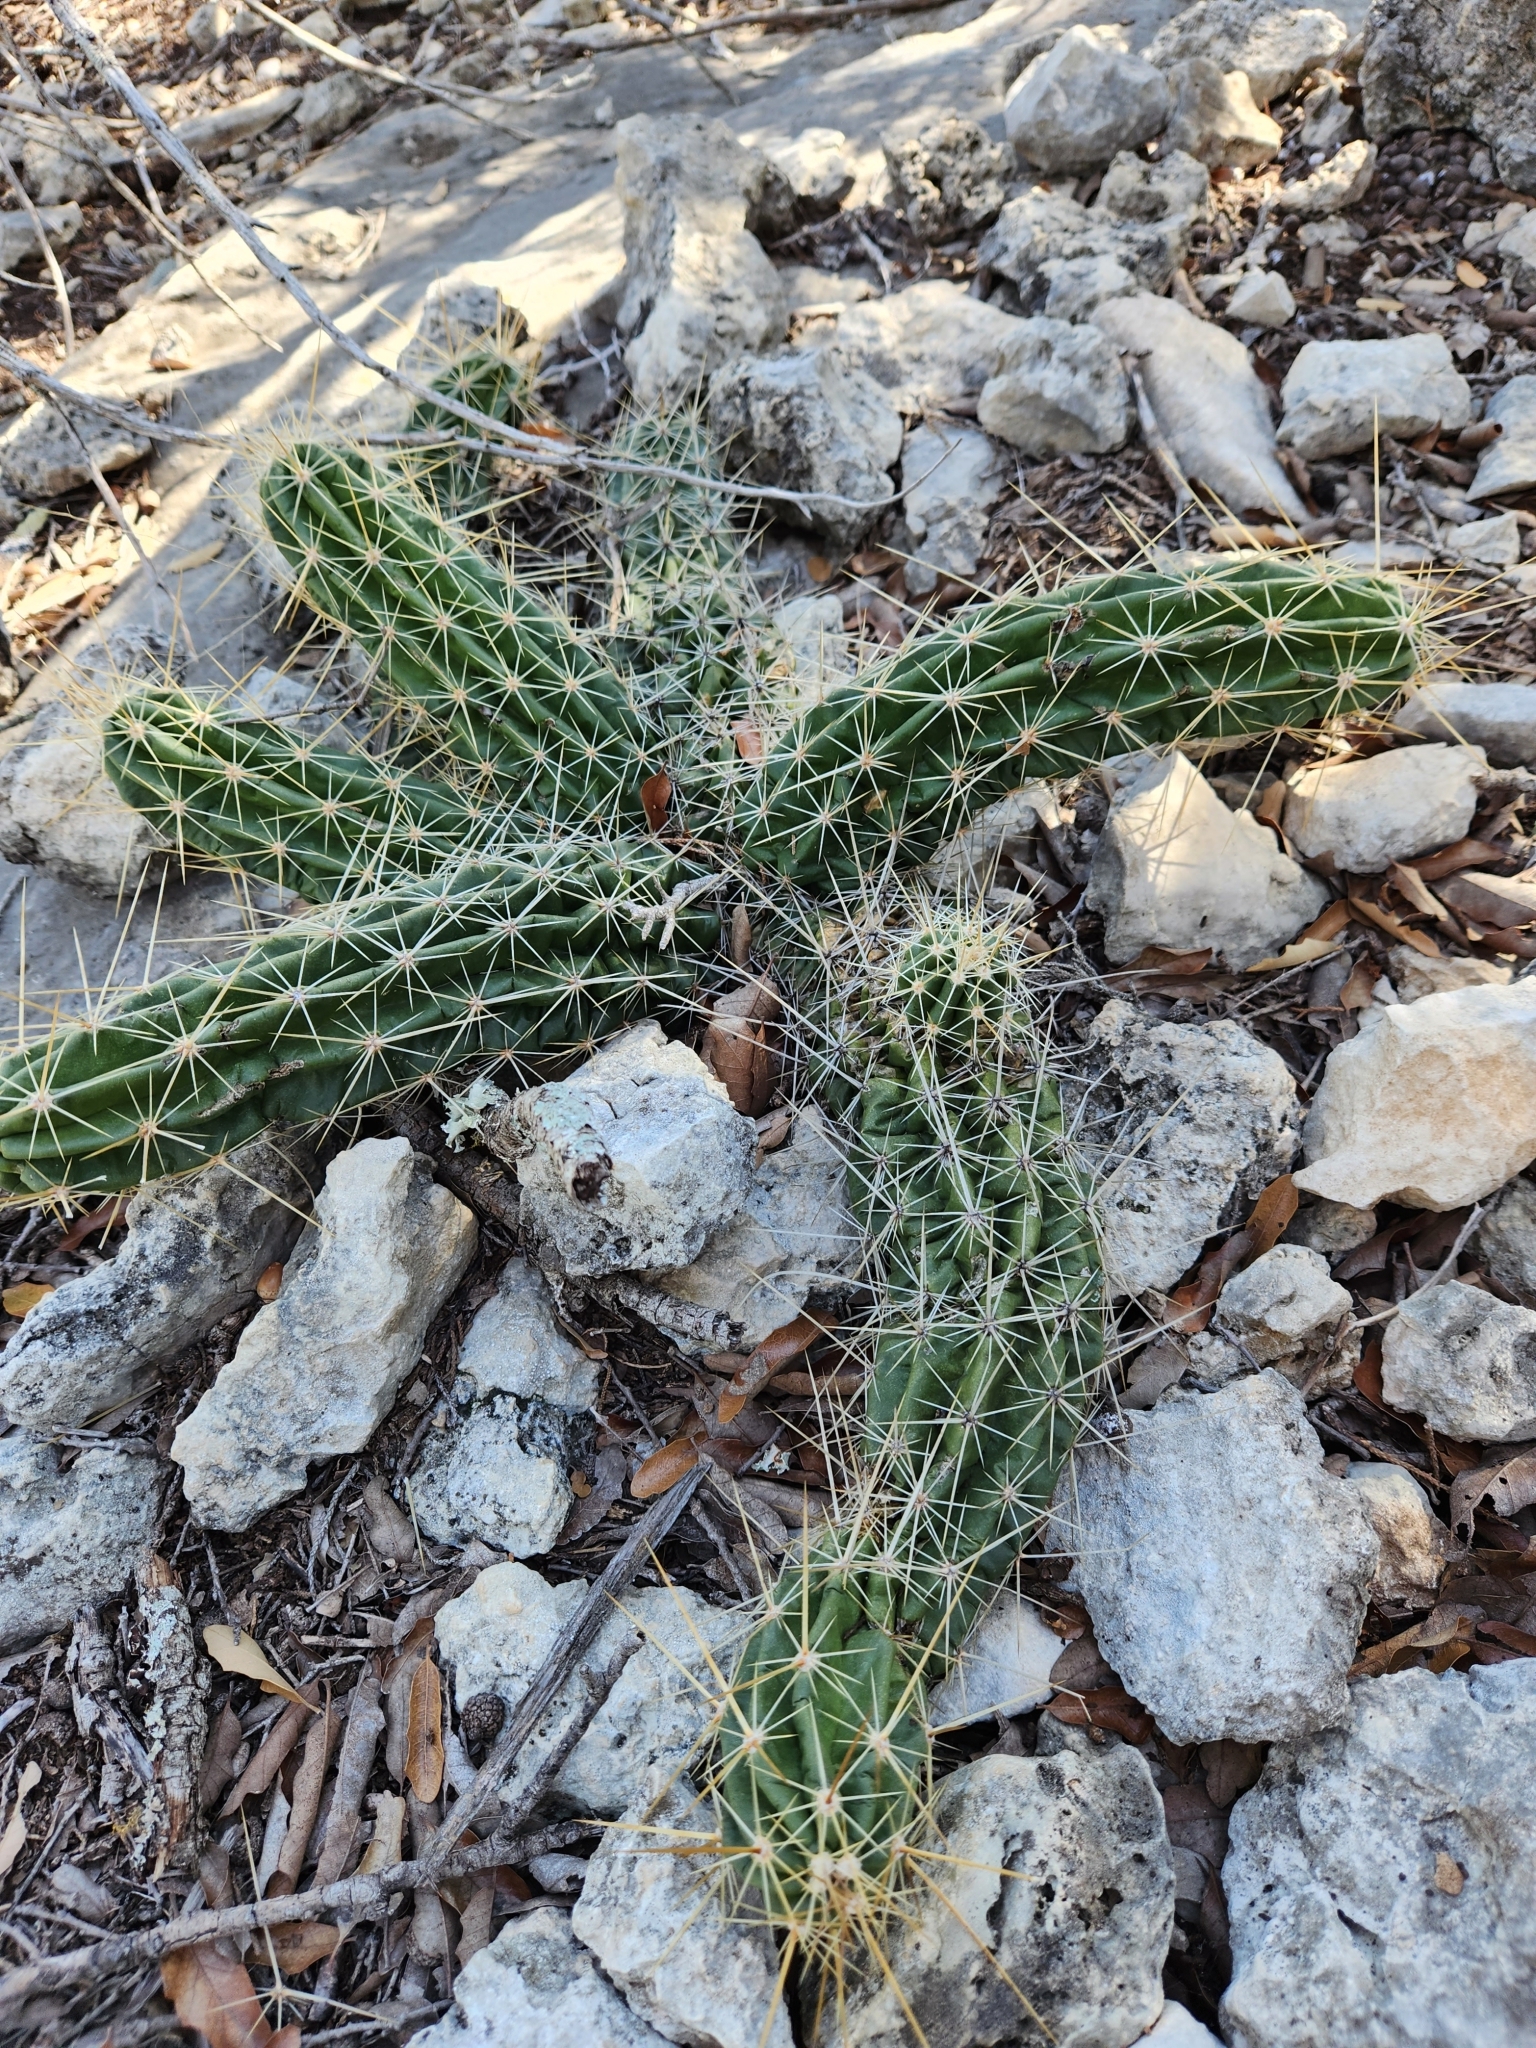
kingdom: Plantae
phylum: Tracheophyta
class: Magnoliopsida
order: Caryophyllales
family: Cactaceae
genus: Echinocereus
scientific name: Echinocereus enneacanthus
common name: Pitaya
